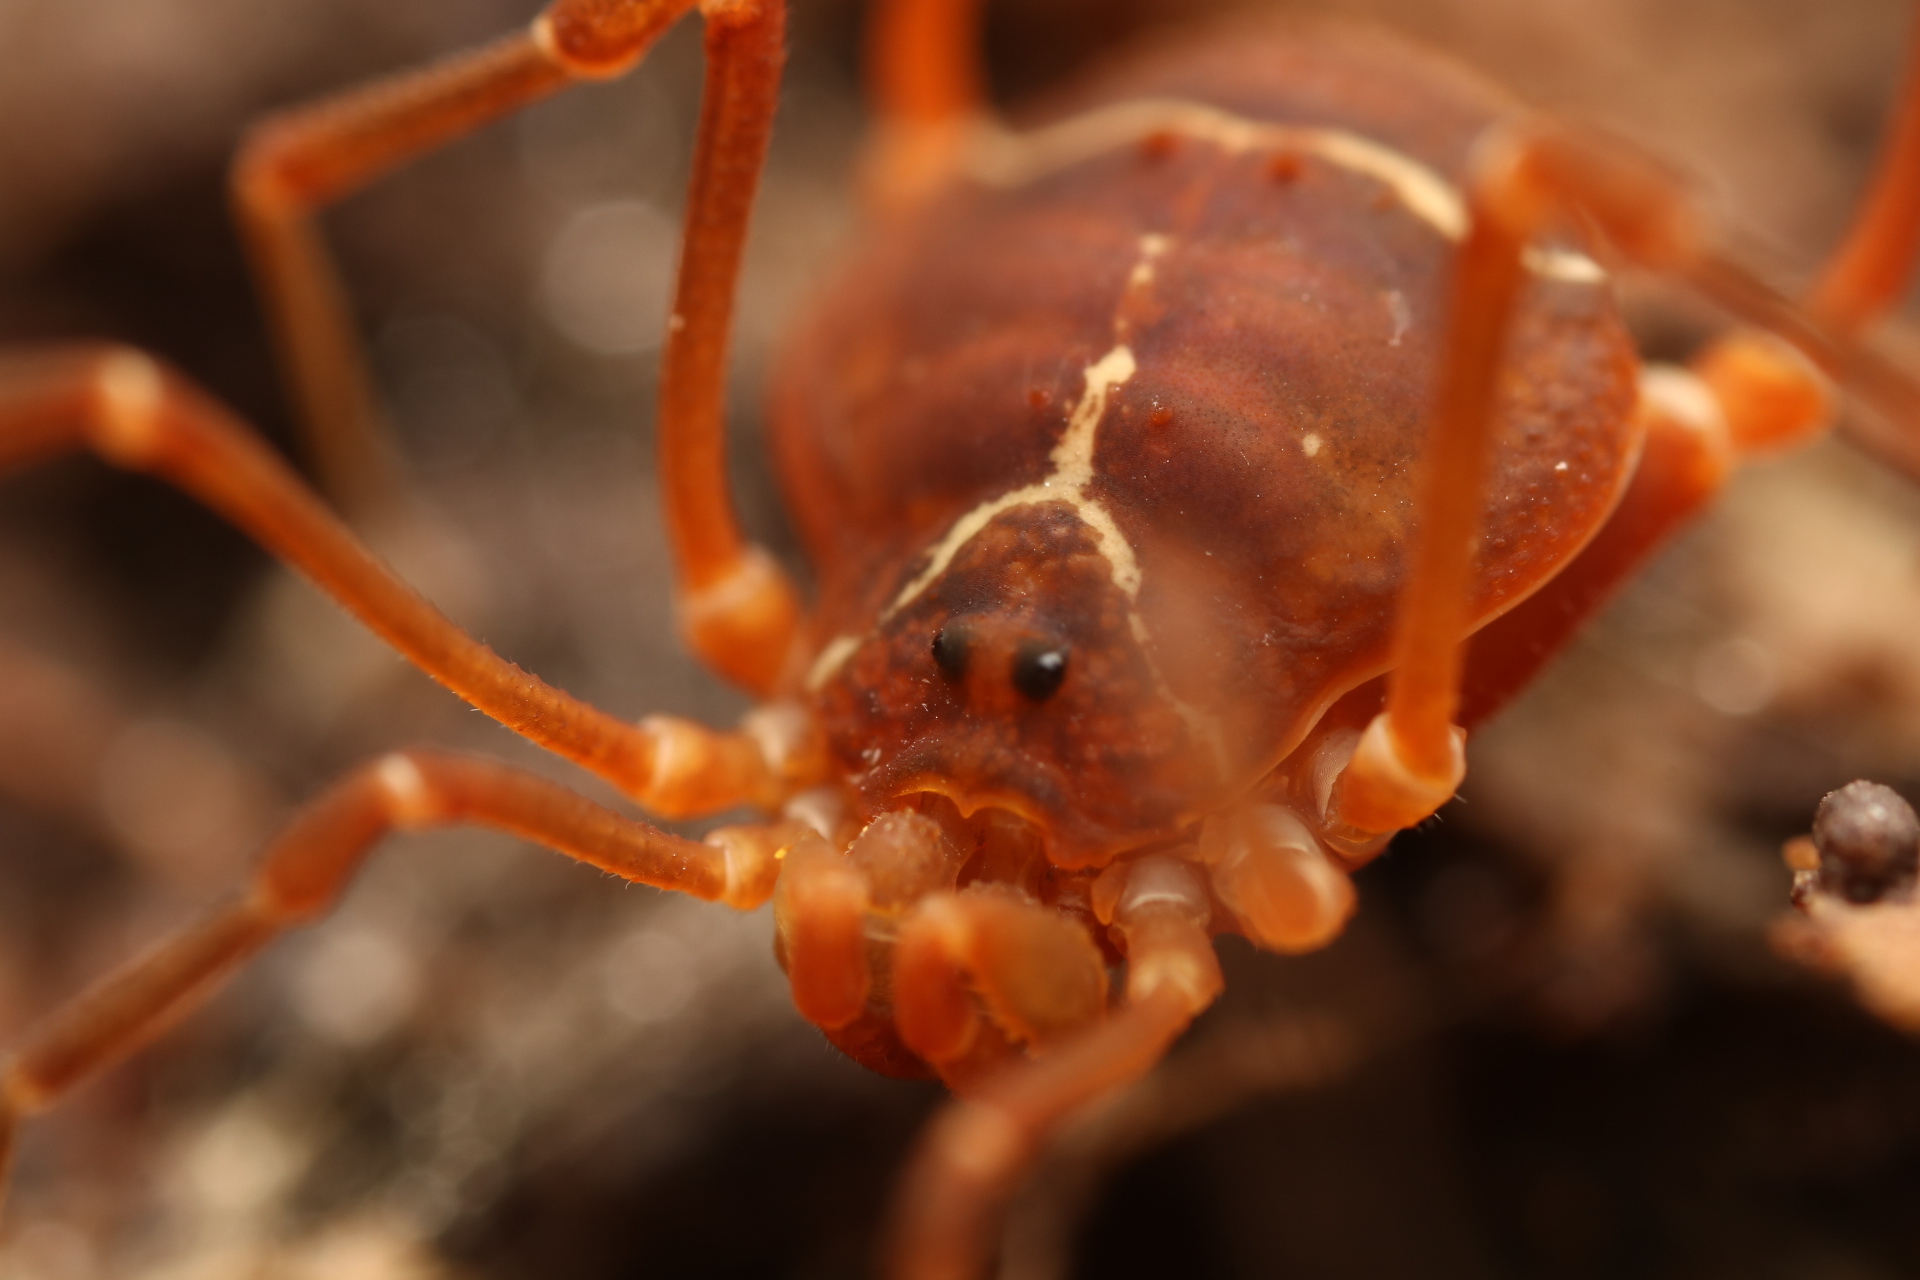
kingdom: Animalia
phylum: Arthropoda
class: Arachnida
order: Opiliones
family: Cosmetidae
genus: Libitioides
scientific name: Libitioides sayi
